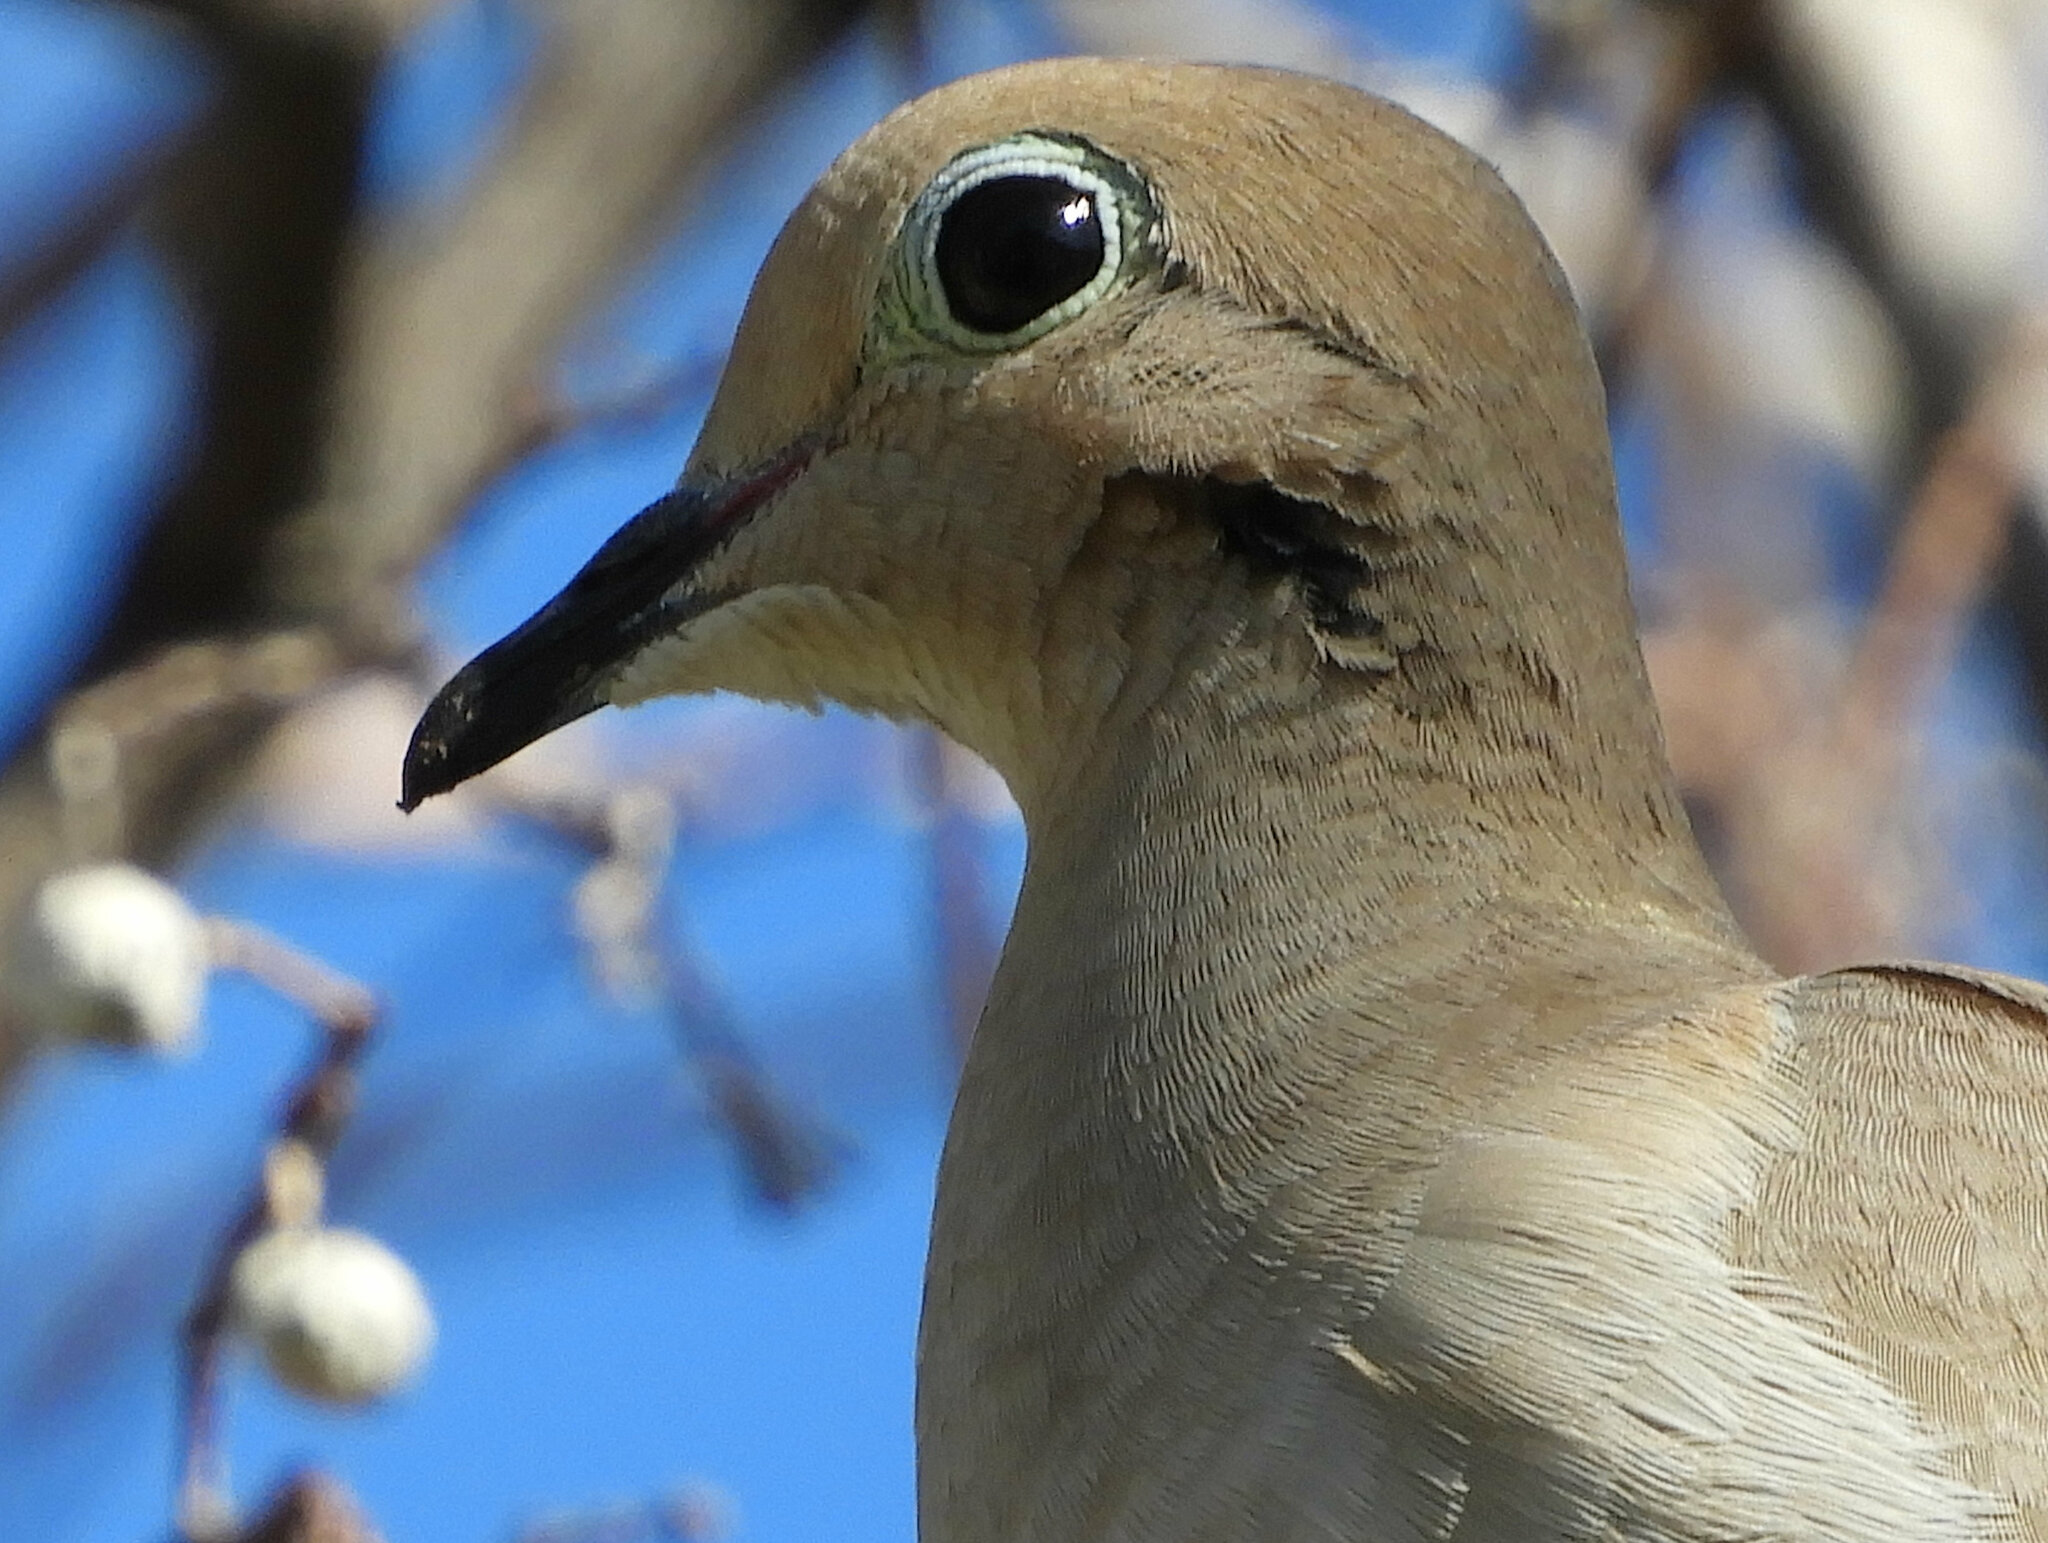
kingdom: Animalia
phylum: Chordata
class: Aves
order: Columbiformes
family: Columbidae
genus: Zenaida
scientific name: Zenaida macroura
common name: Mourning dove
